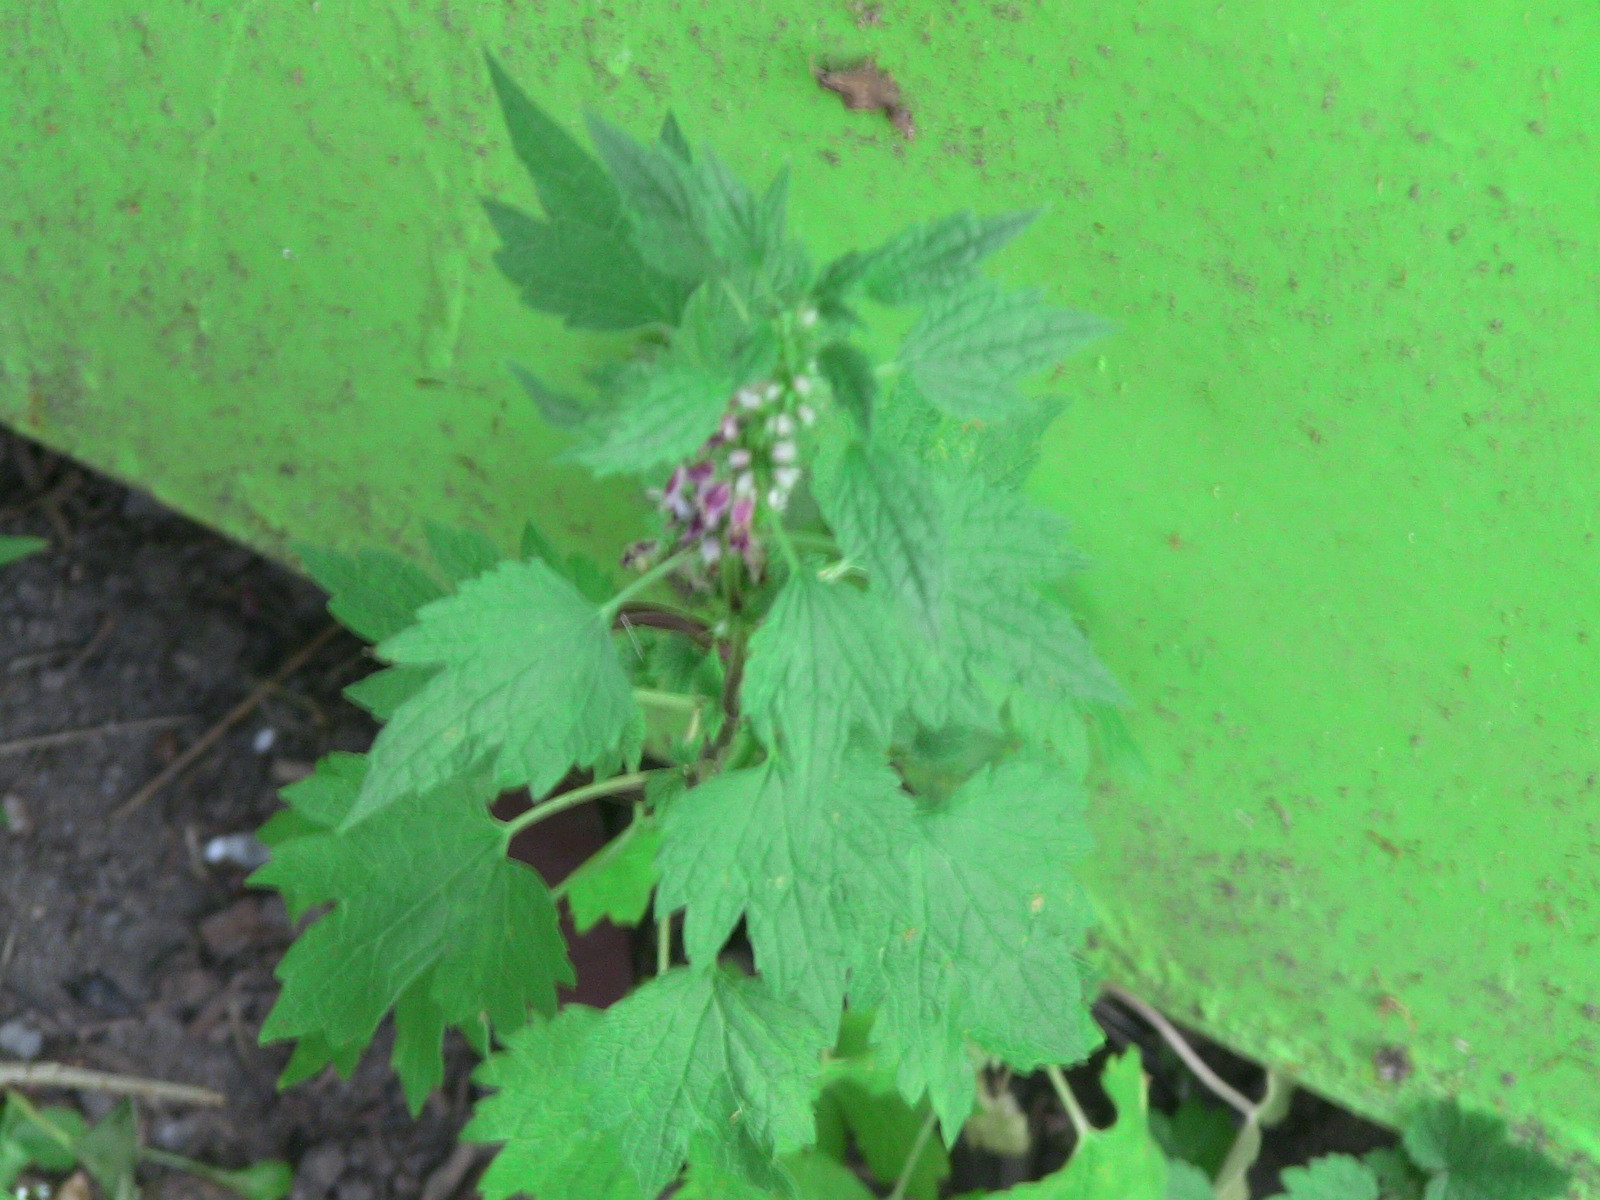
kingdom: Plantae
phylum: Tracheophyta
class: Magnoliopsida
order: Lamiales
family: Lamiaceae
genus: Leonurus
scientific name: Leonurus cardiaca
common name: Motherwort
